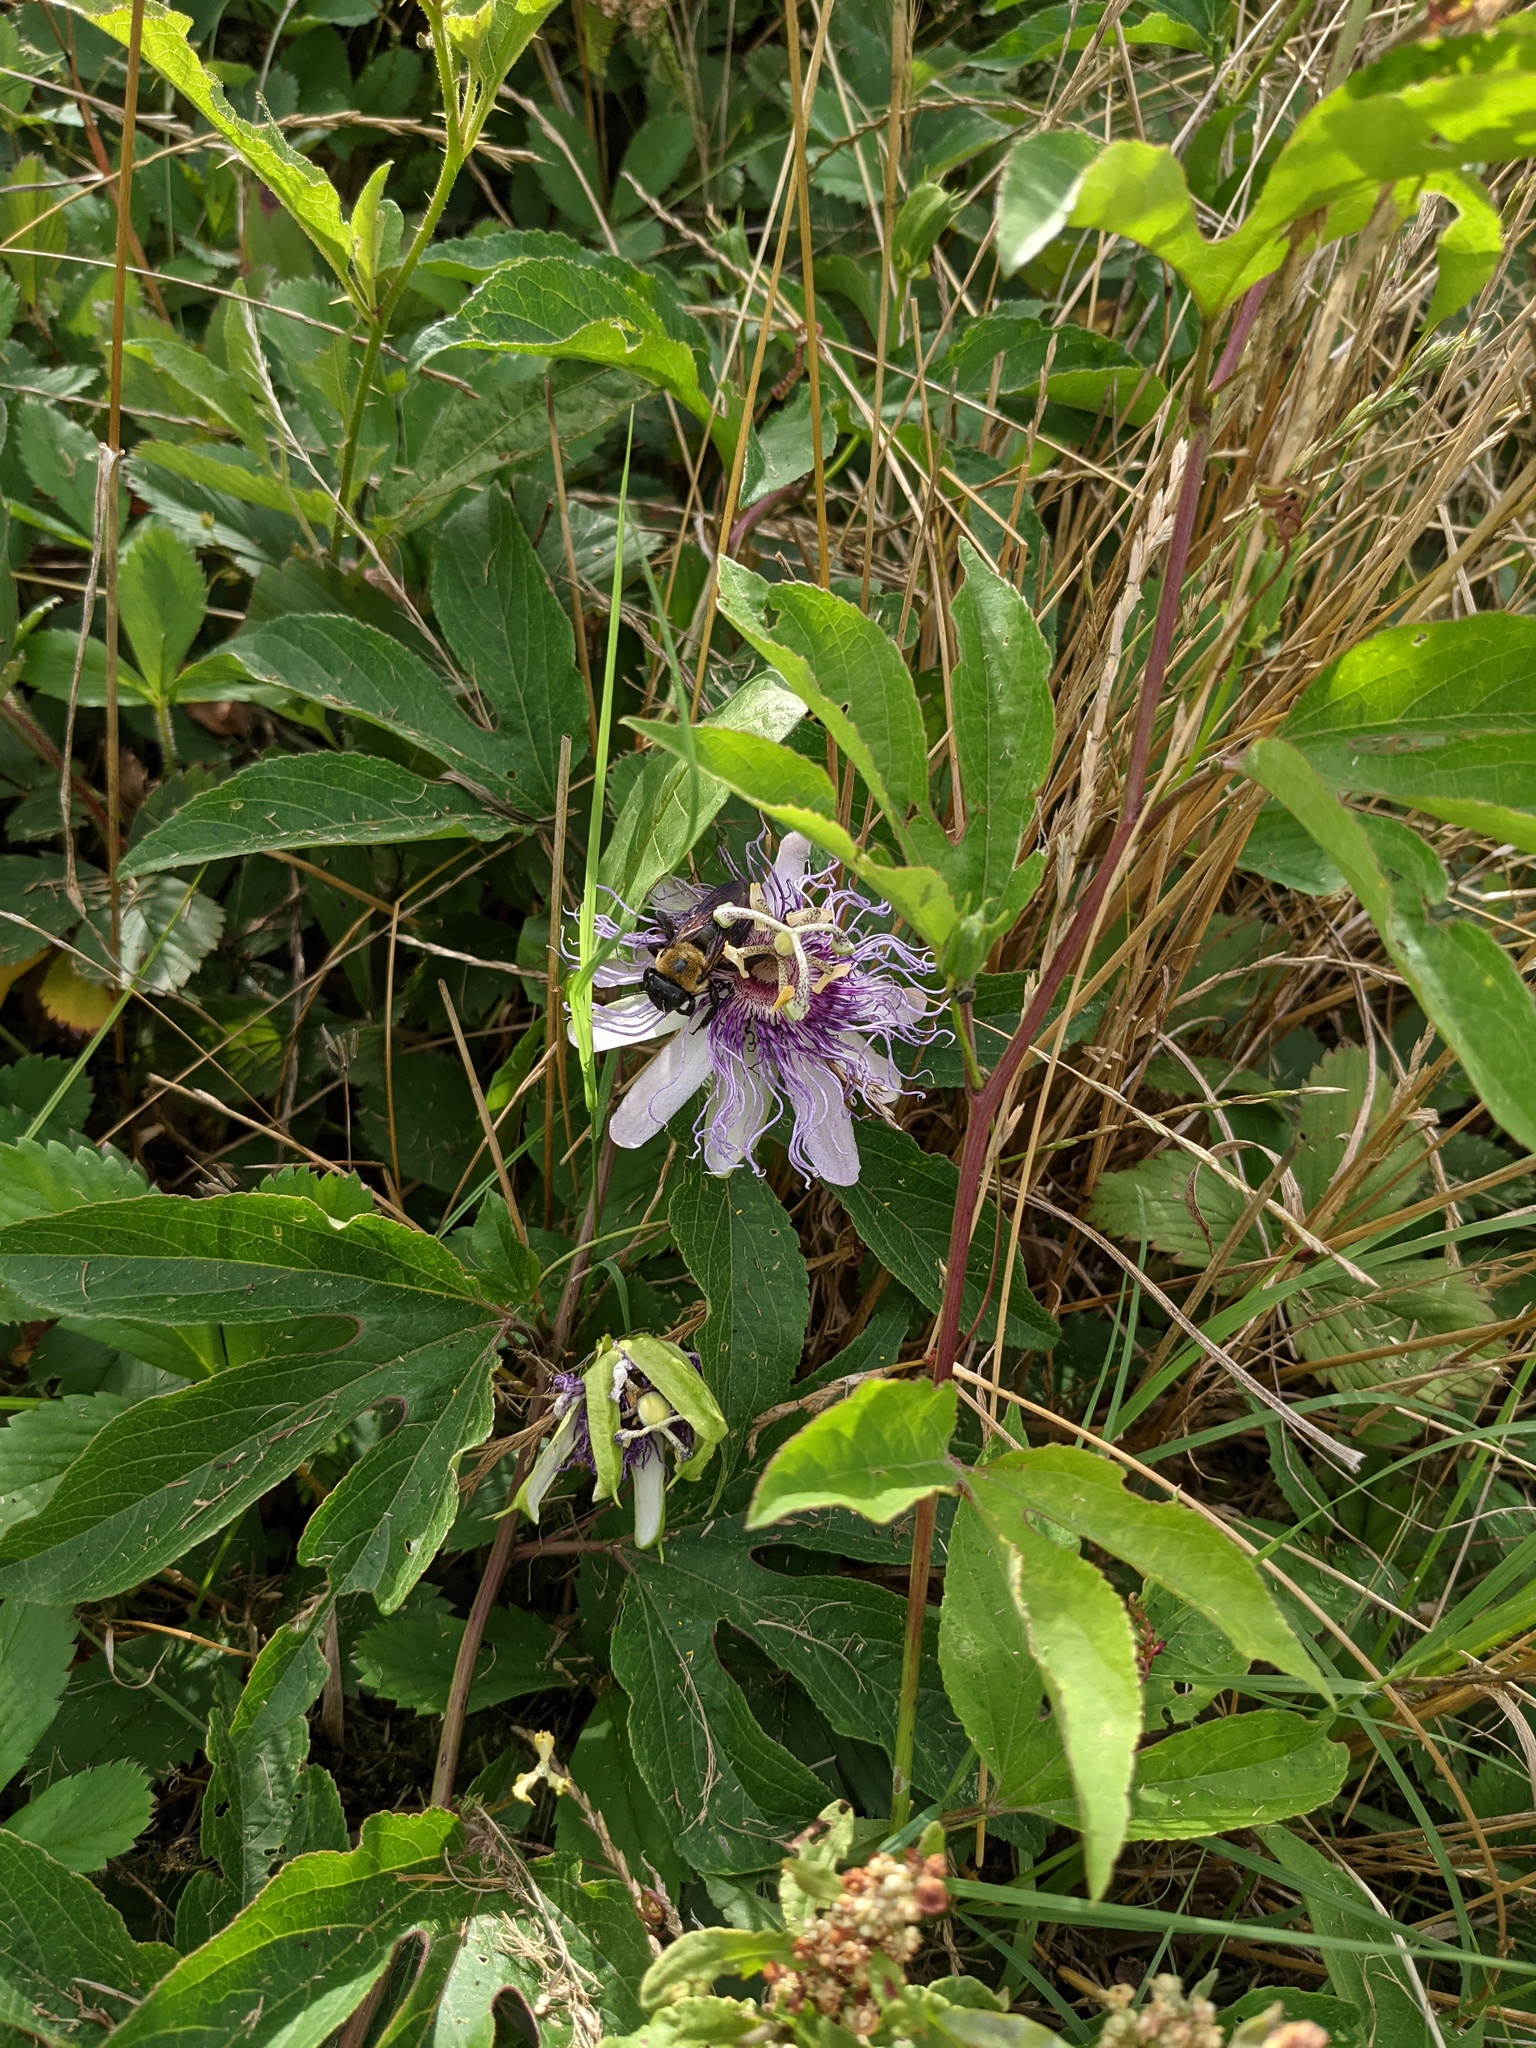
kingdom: Plantae
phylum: Tracheophyta
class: Magnoliopsida
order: Malpighiales
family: Passifloraceae
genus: Passiflora
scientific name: Passiflora incarnata
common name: Apricot-vine
